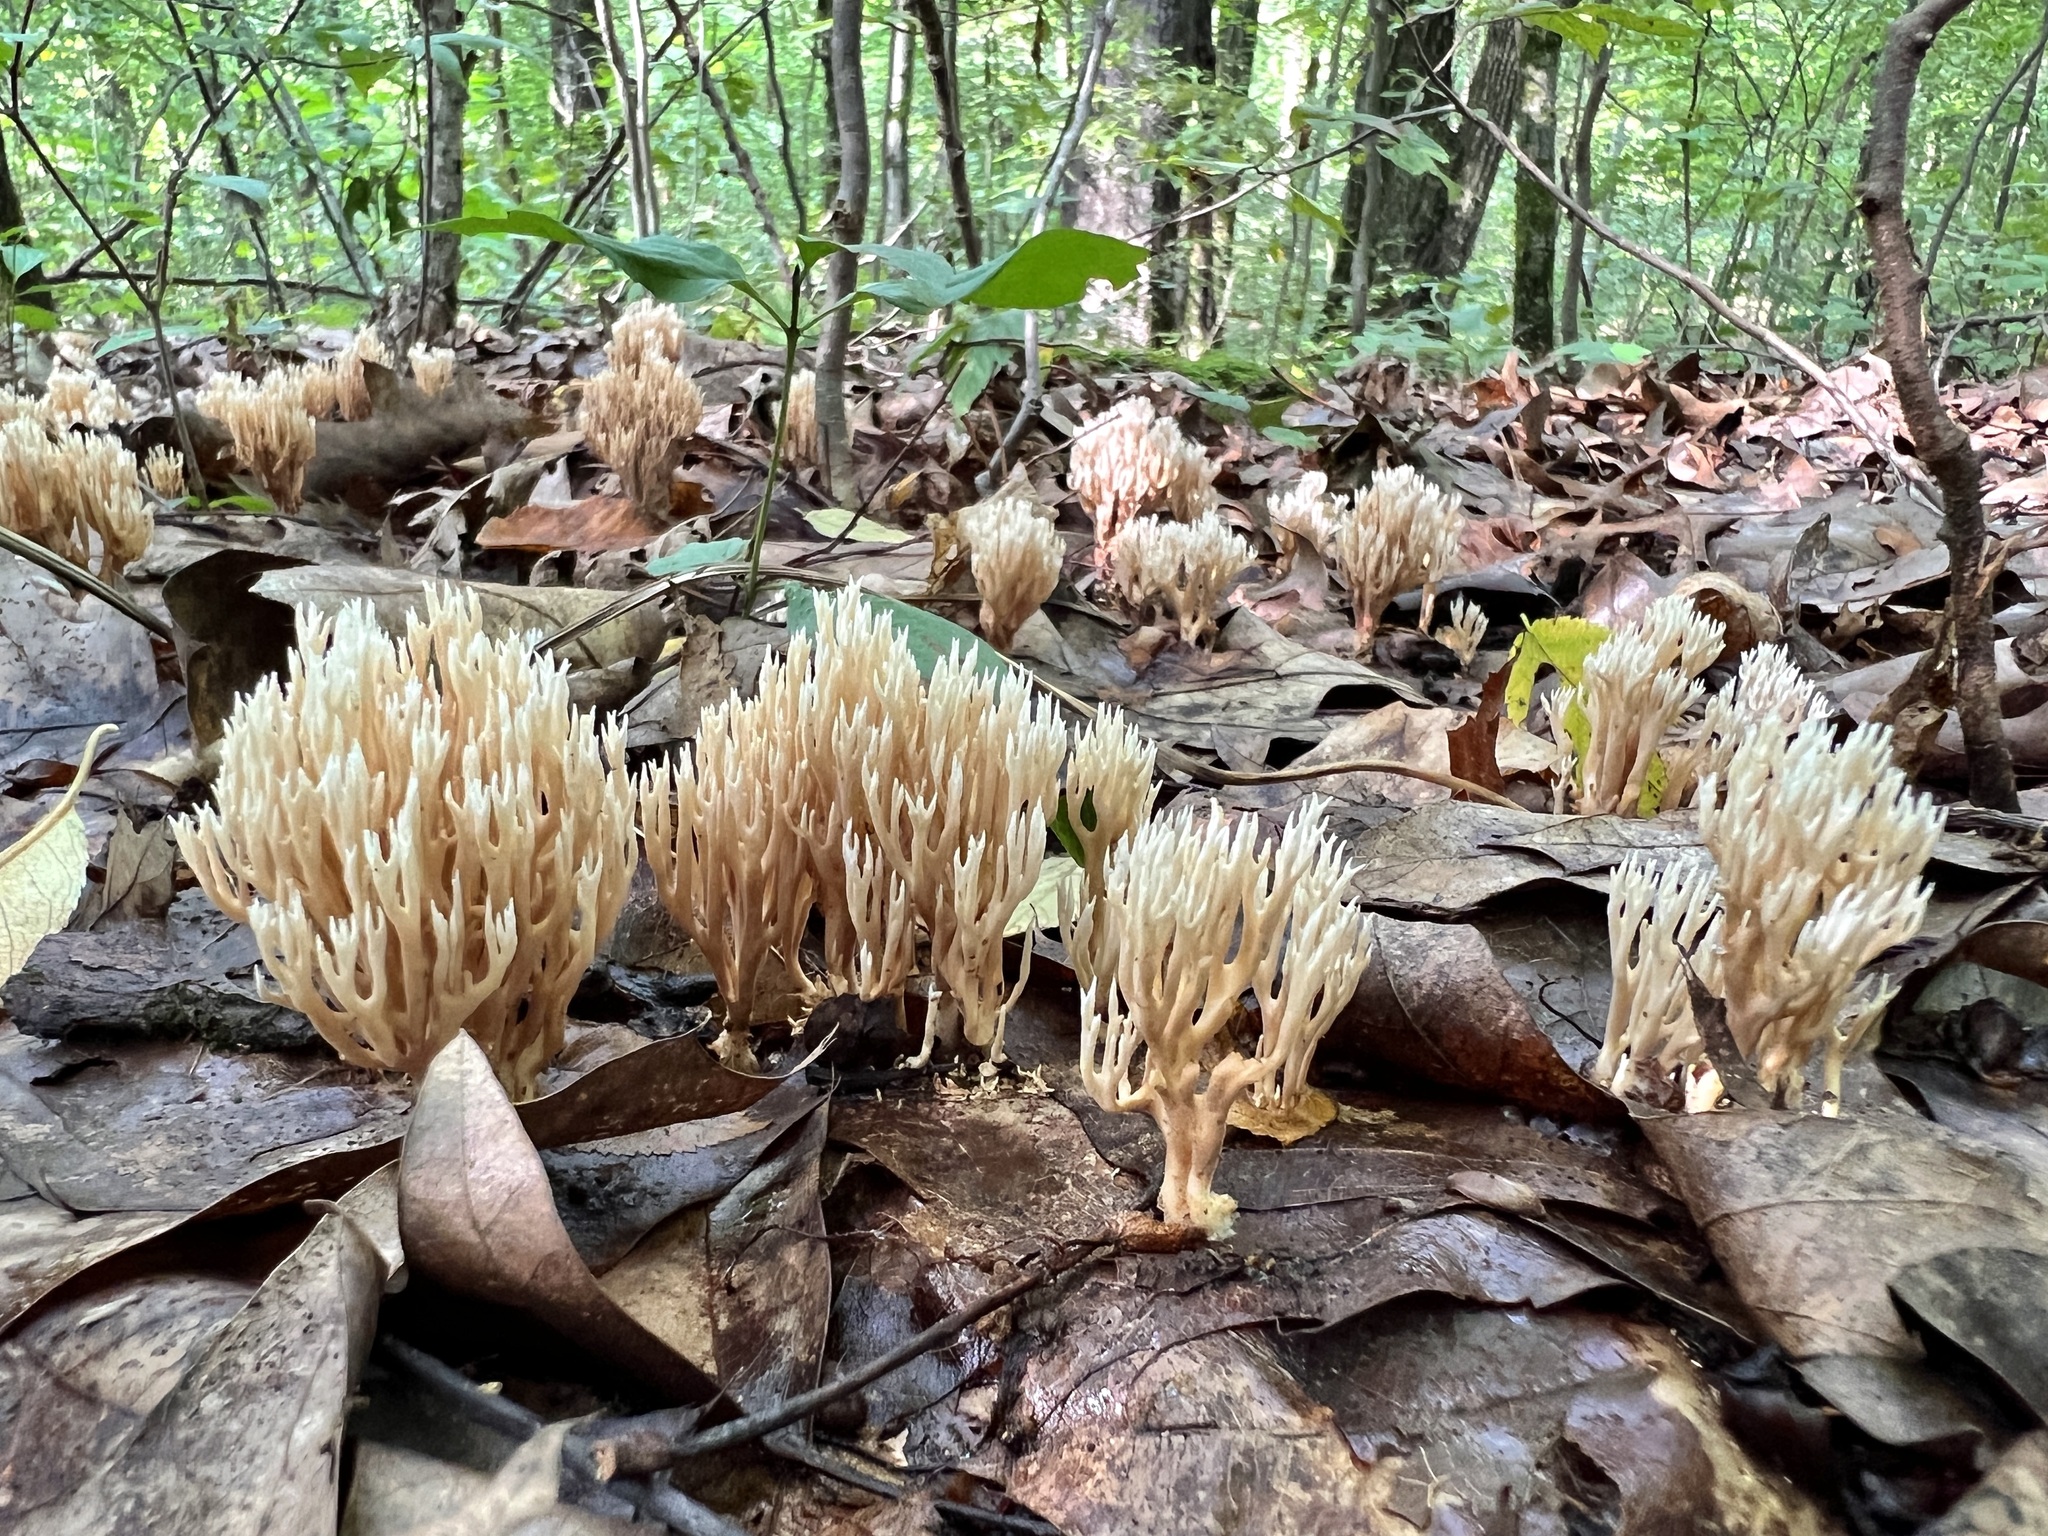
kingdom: Fungi
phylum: Basidiomycota
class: Agaricomycetes
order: Gomphales
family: Lentariaceae
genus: Lentaria
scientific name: Lentaria byssiseda
